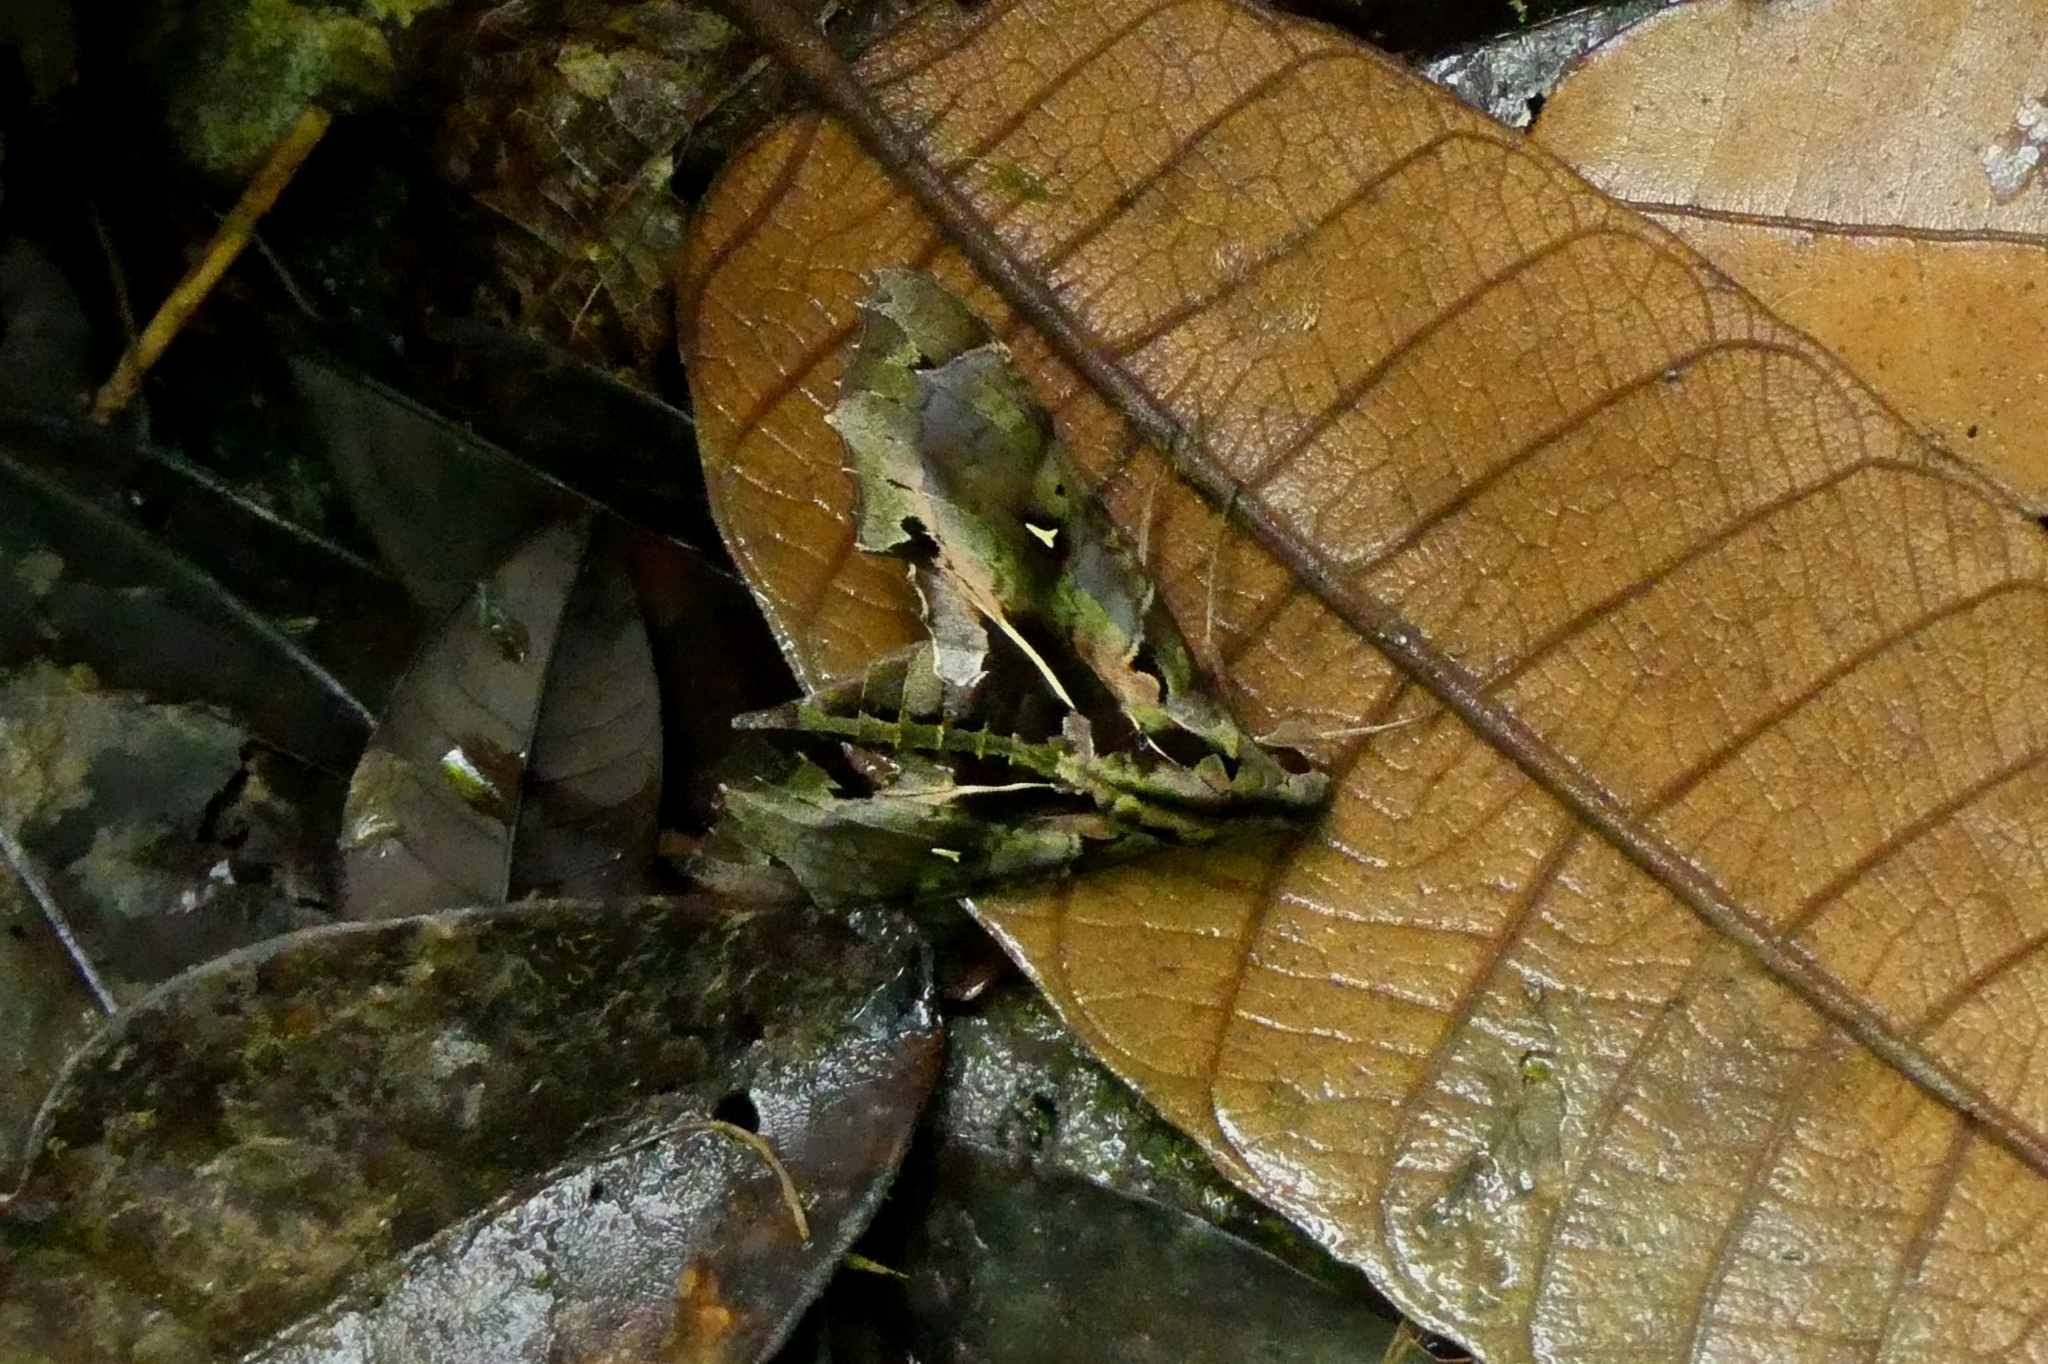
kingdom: Animalia
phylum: Arthropoda
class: Insecta
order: Lepidoptera
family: Sphingidae
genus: Hemeroplanes
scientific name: Hemeroplanes ornatus
